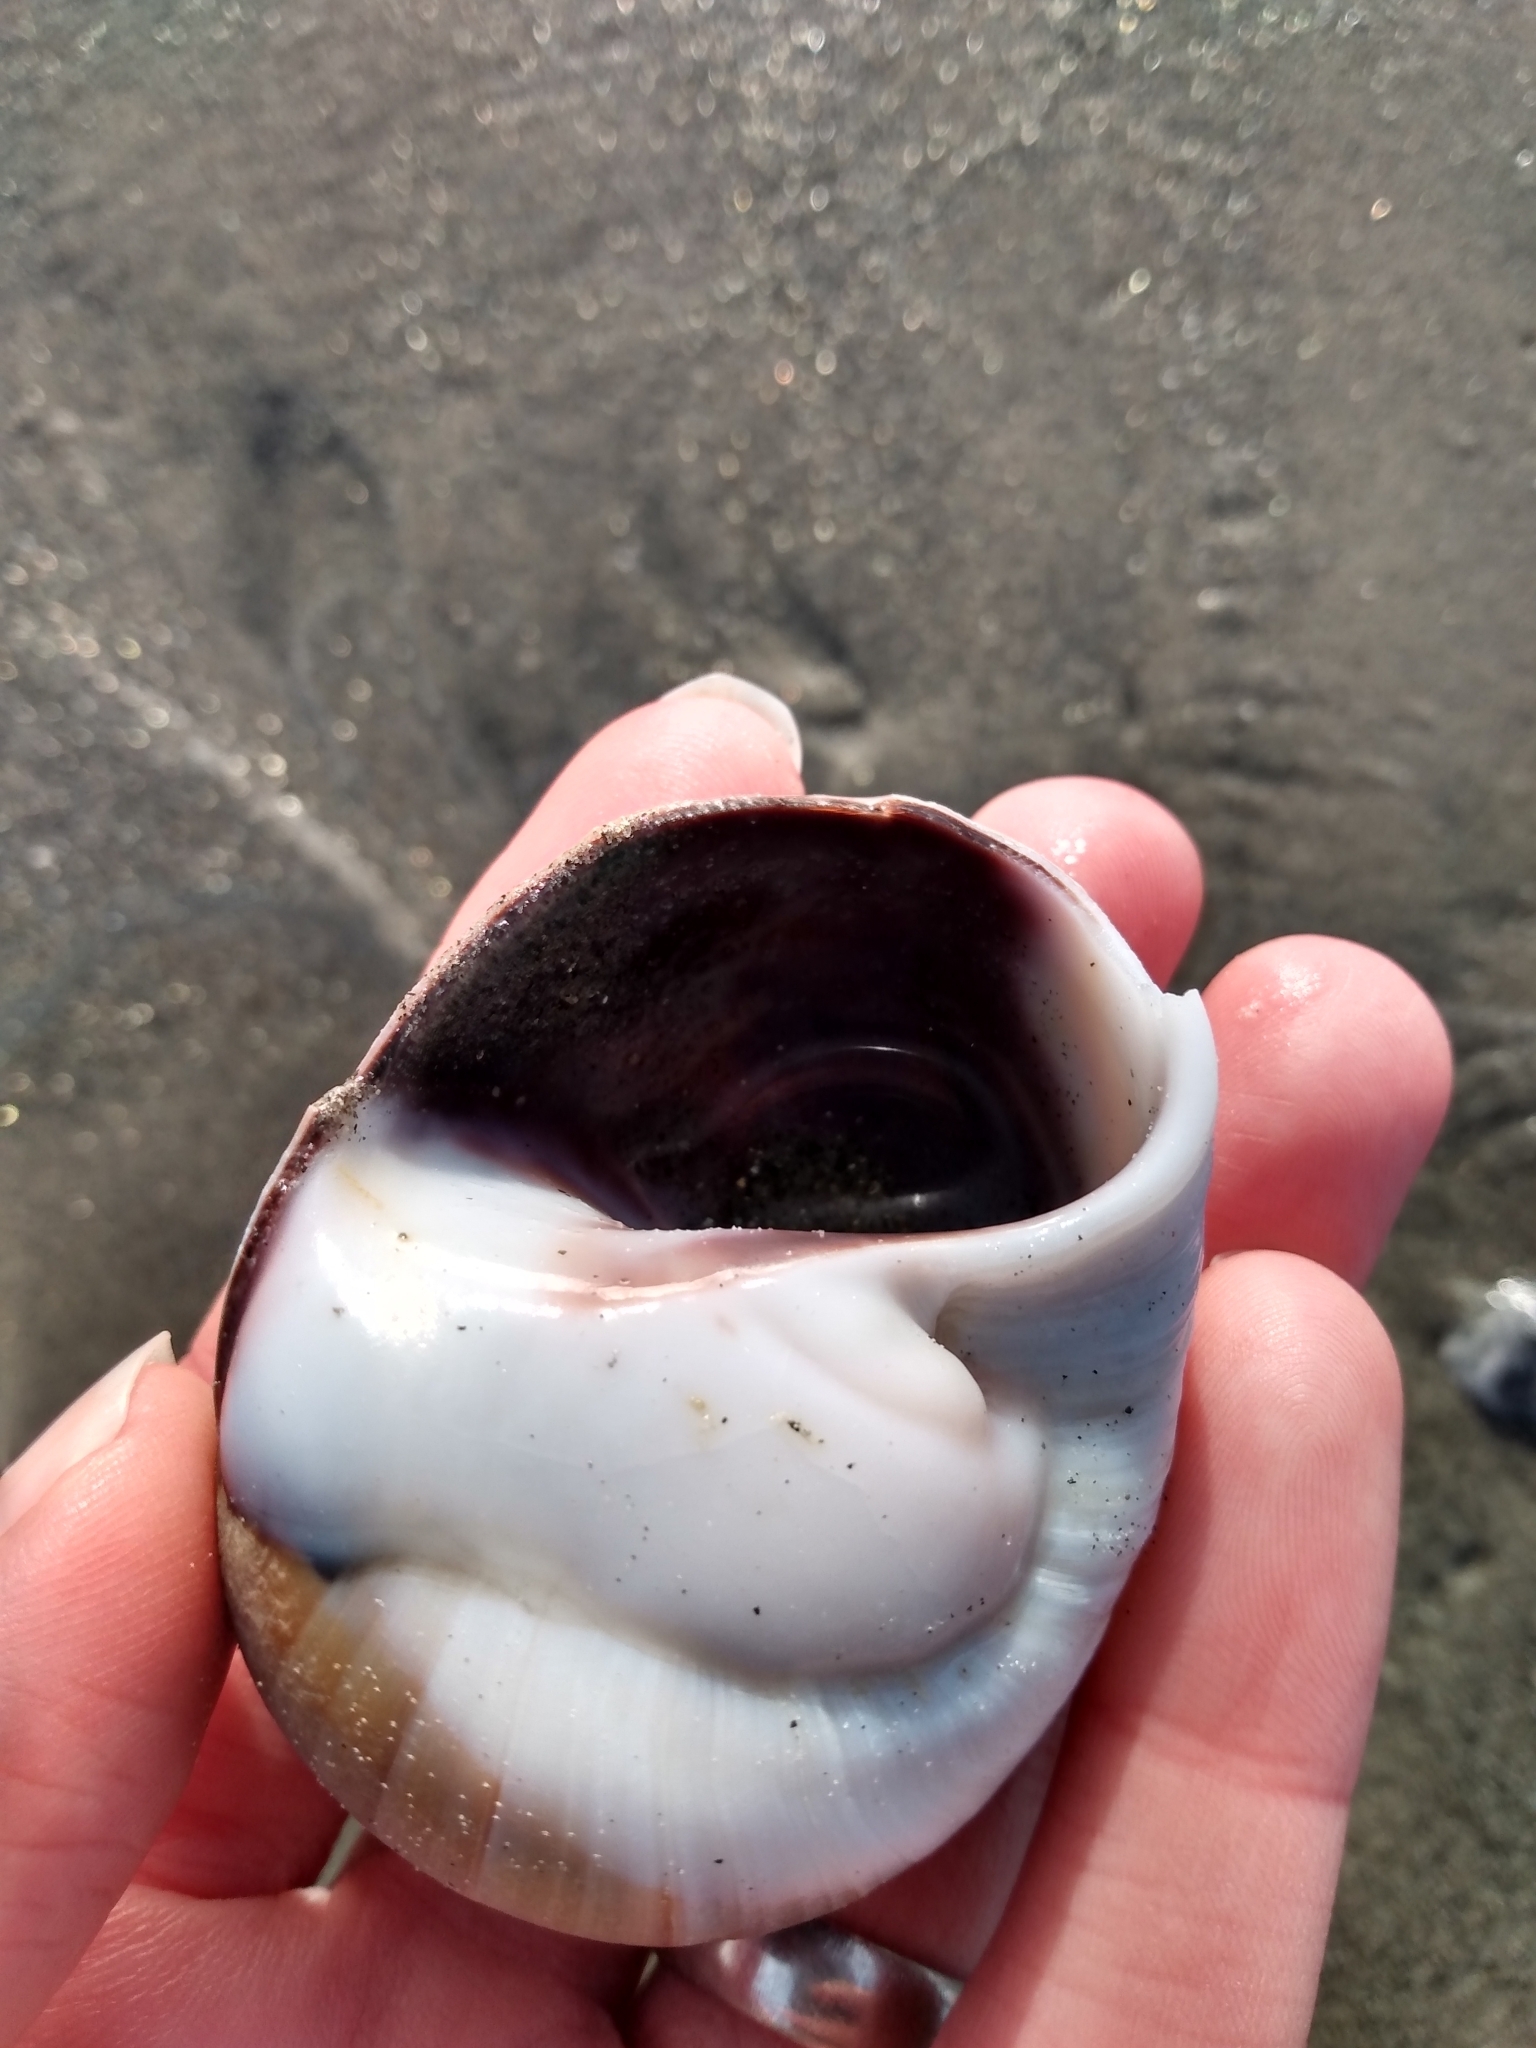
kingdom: Animalia
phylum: Mollusca
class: Gastropoda
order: Littorinimorpha
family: Naticidae
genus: Glossaulax
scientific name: Glossaulax reclusiana
